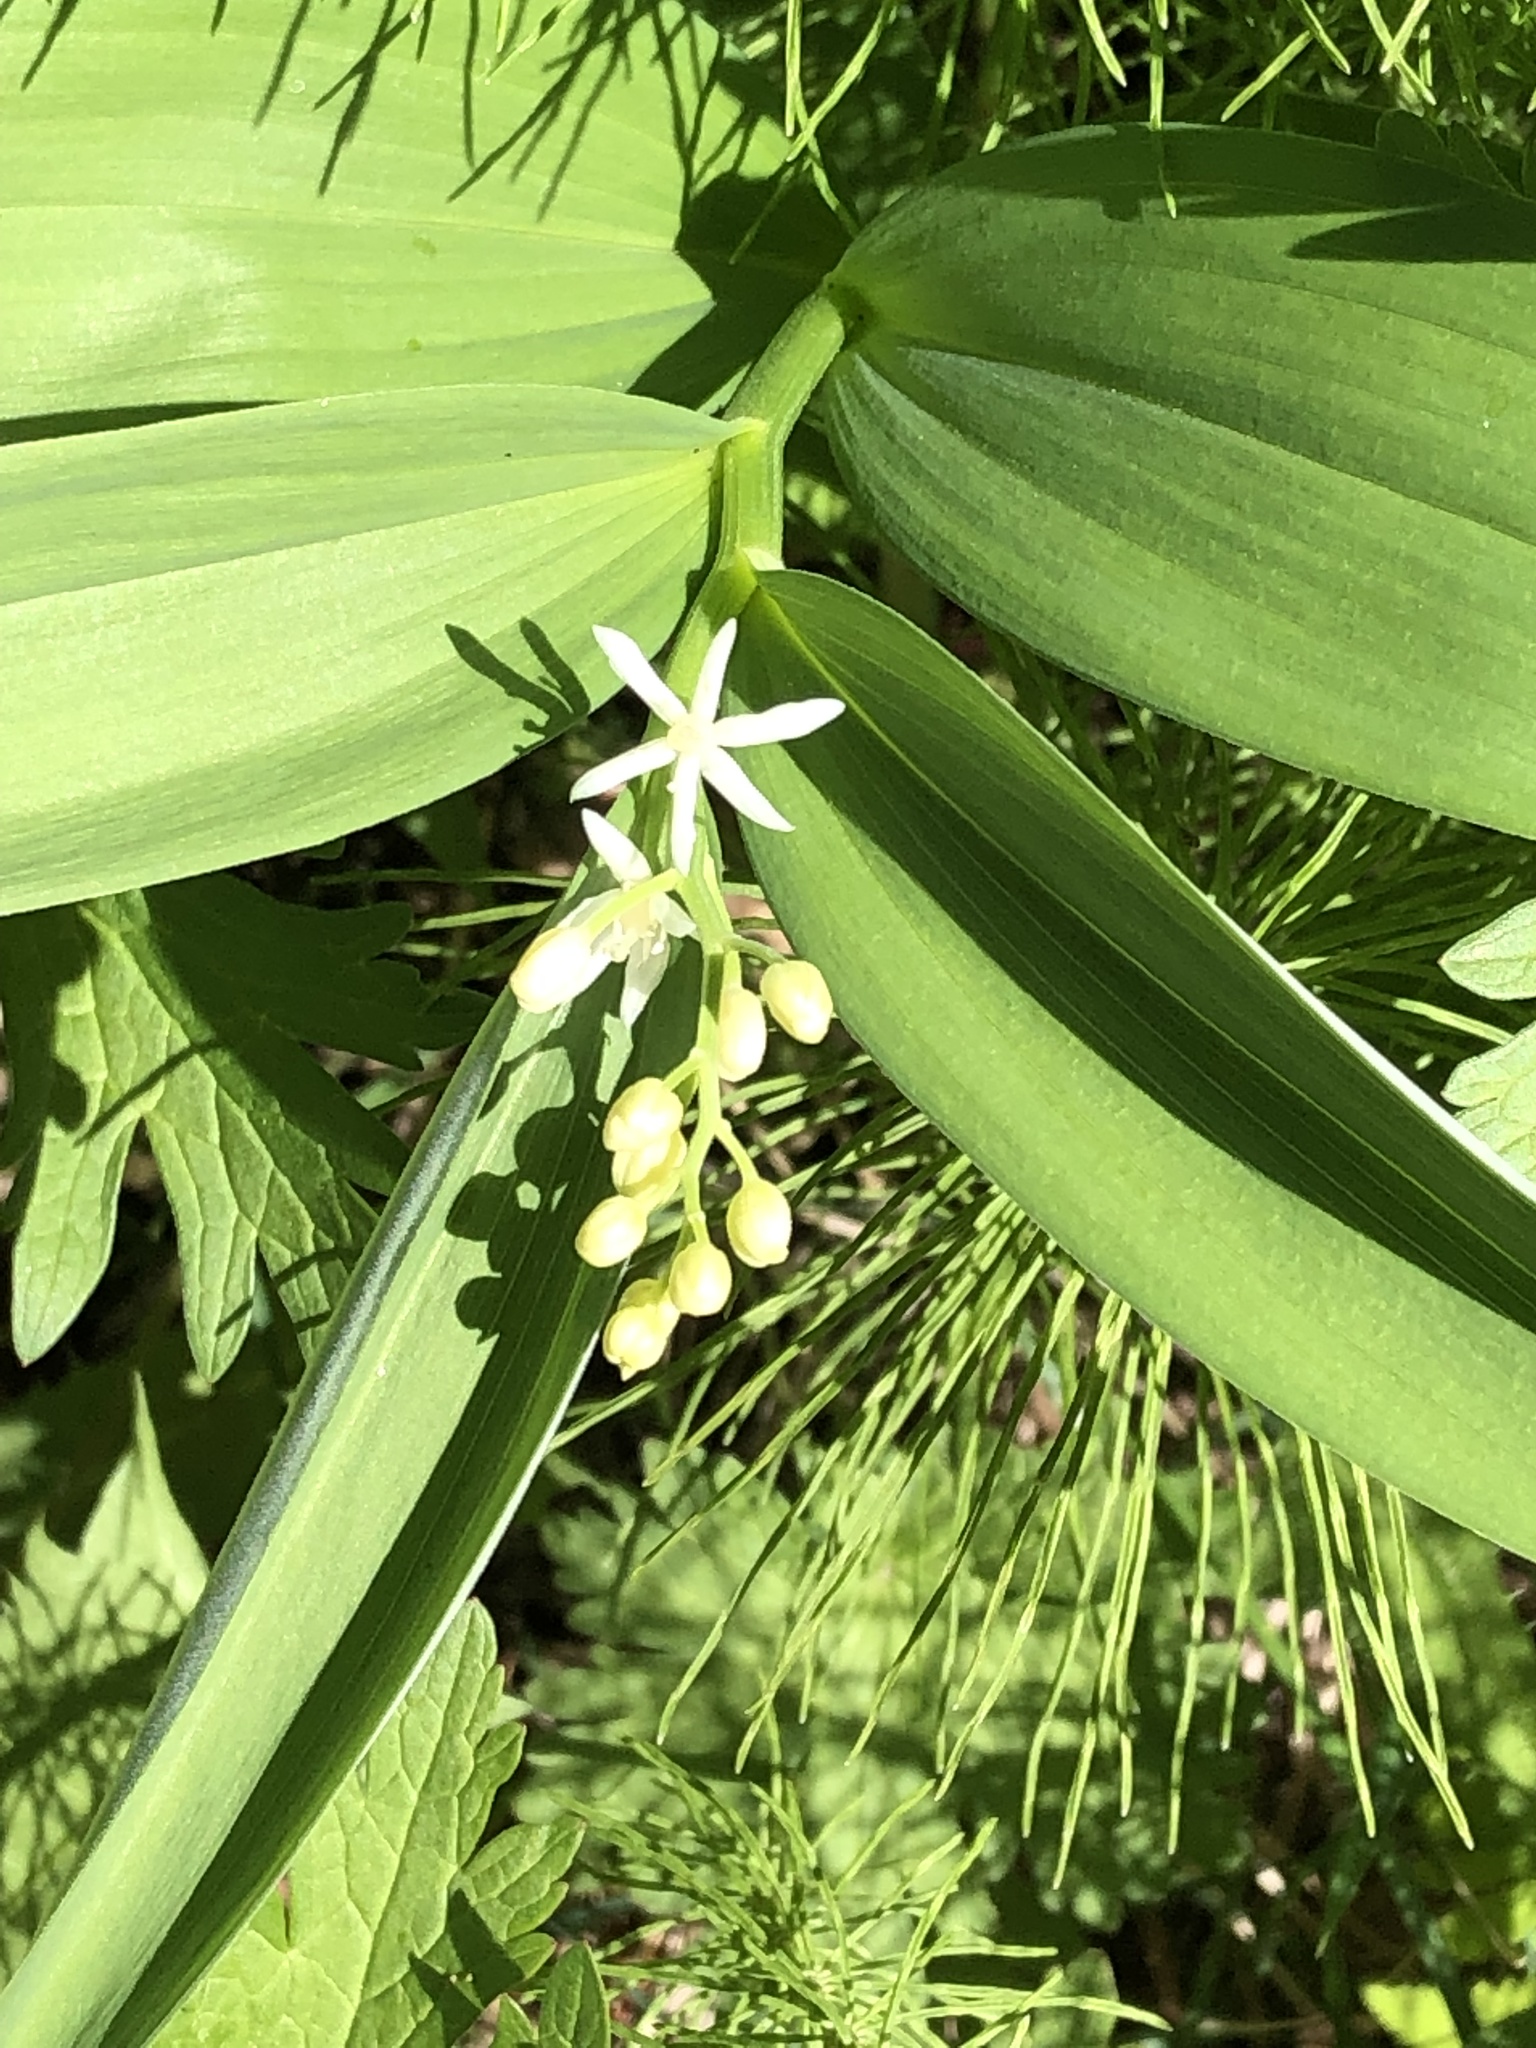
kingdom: Plantae
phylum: Tracheophyta
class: Liliopsida
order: Asparagales
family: Asparagaceae
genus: Maianthemum
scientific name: Maianthemum stellatum
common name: Little false solomon's seal
